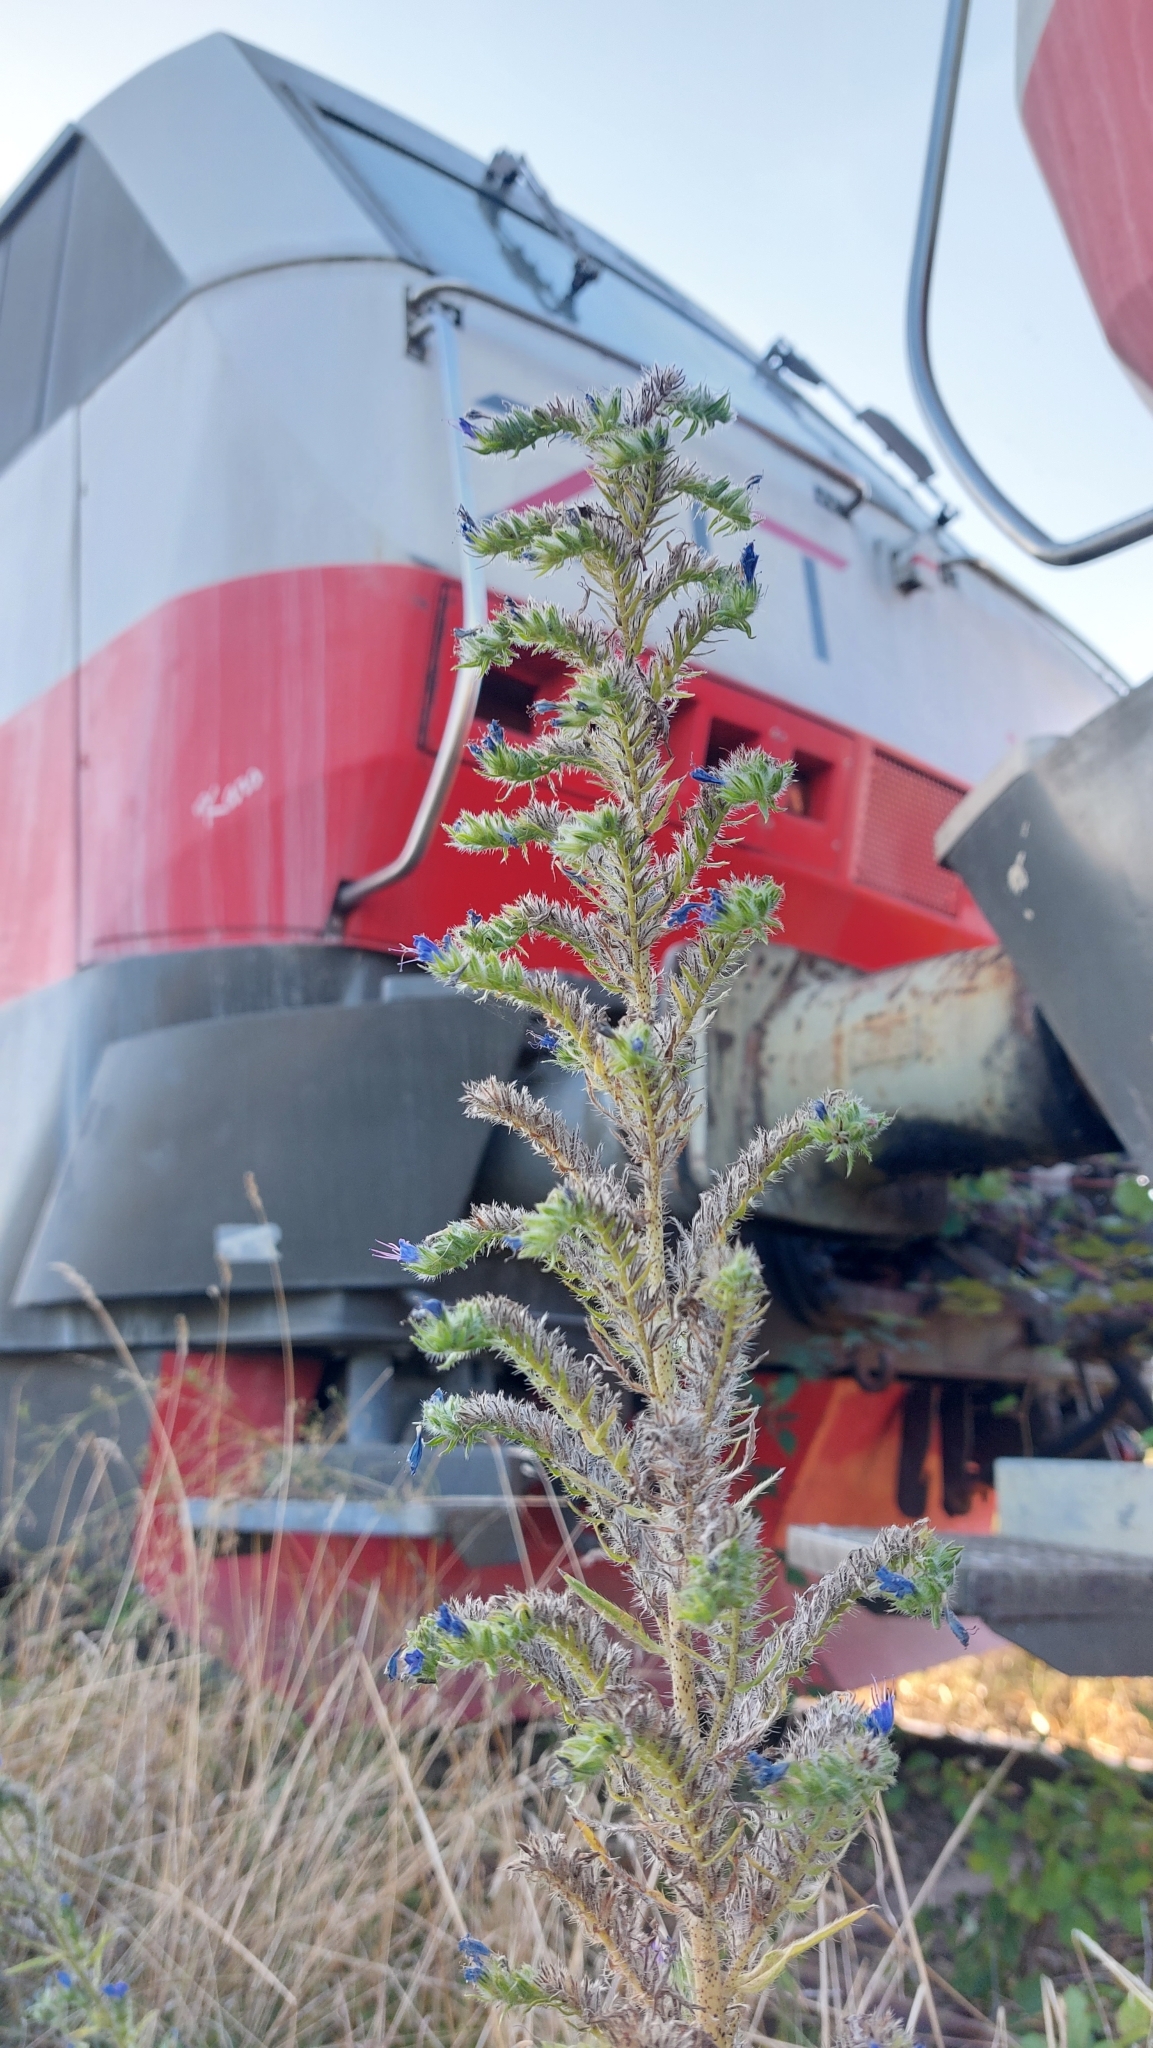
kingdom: Plantae
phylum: Tracheophyta
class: Magnoliopsida
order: Boraginales
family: Boraginaceae
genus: Echium
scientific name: Echium vulgare
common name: Common viper's bugloss
